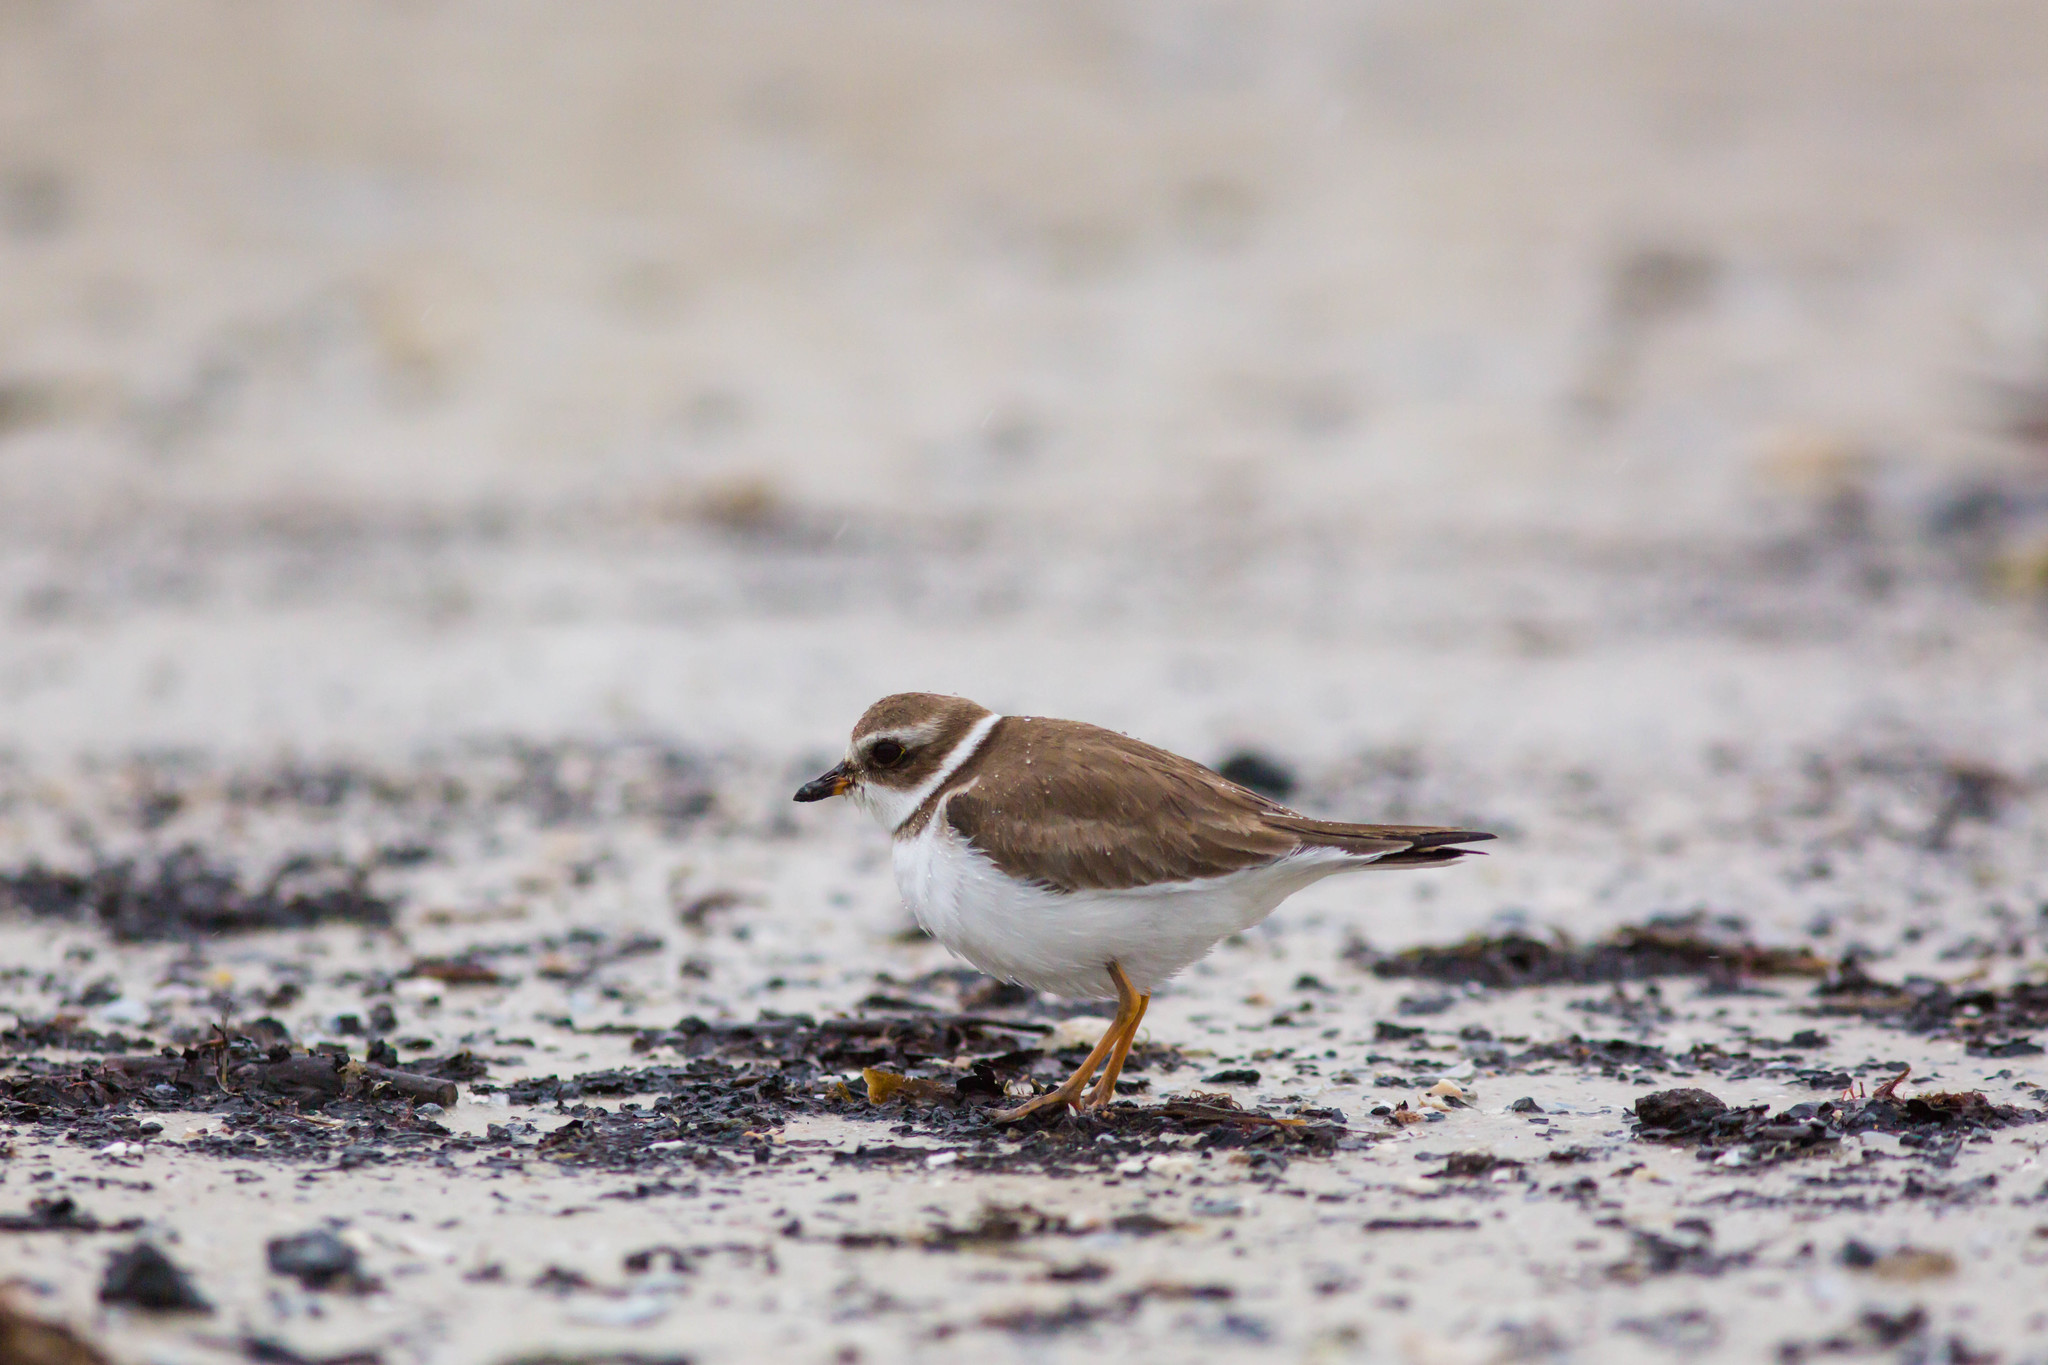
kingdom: Animalia
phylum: Chordata
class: Aves
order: Charadriiformes
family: Charadriidae
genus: Charadrius
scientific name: Charadrius semipalmatus
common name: Semipalmated plover
